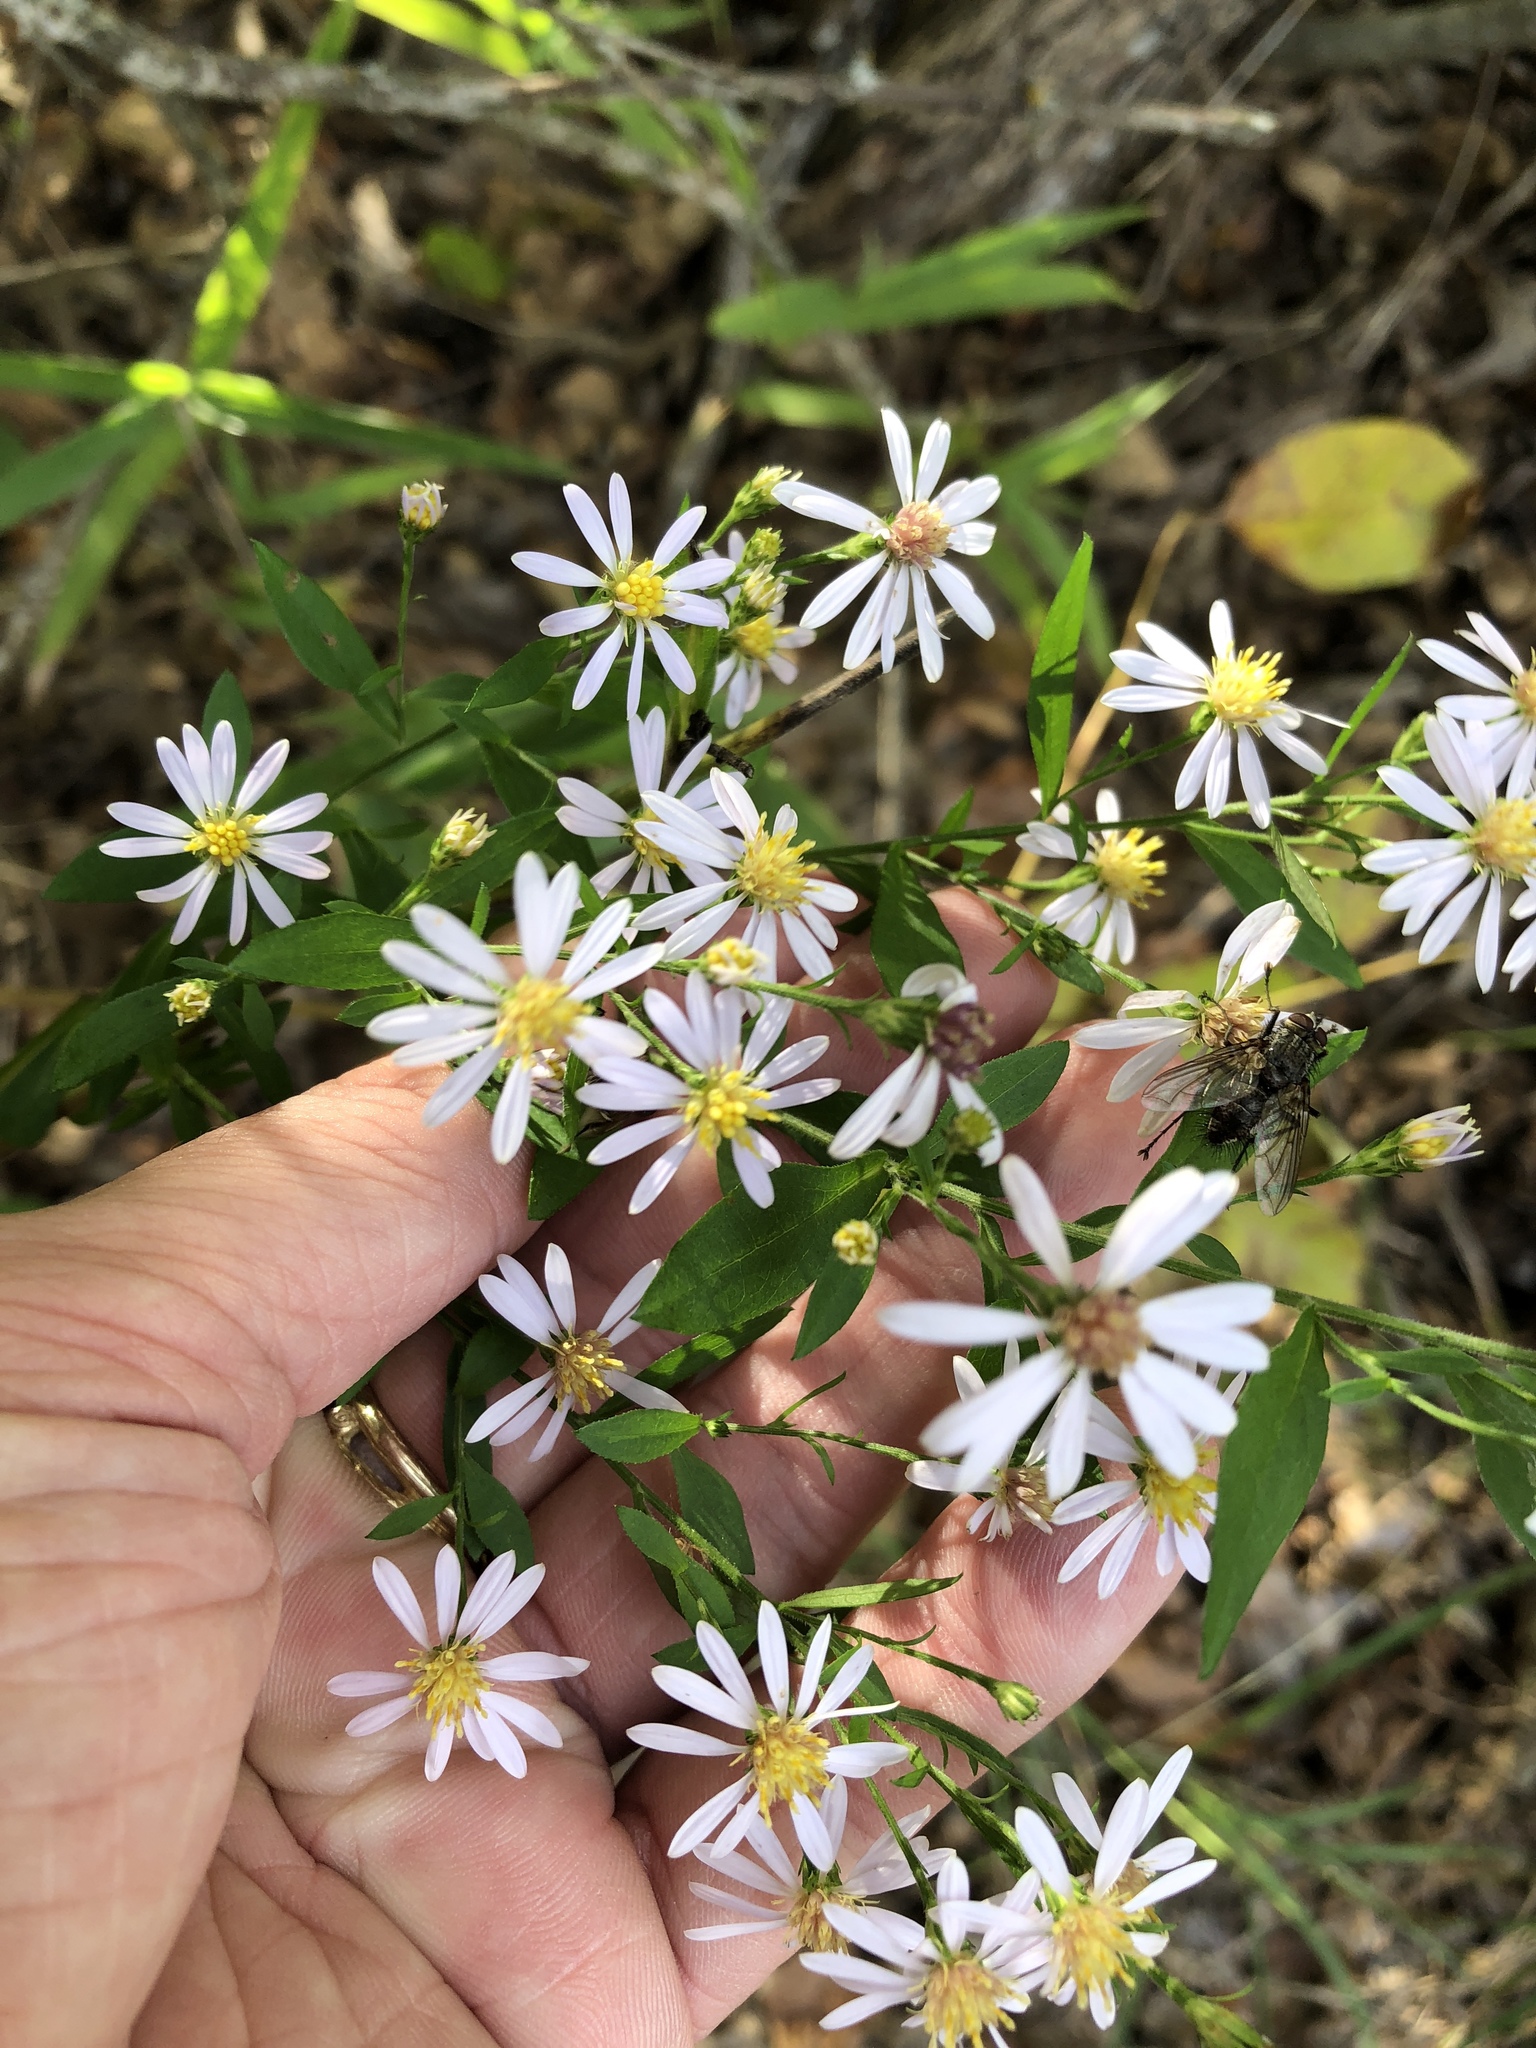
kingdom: Plantae
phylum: Tracheophyta
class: Magnoliopsida
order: Asterales
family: Asteraceae
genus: Symphyotrichum
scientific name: Symphyotrichum lanceolatum
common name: Panicled aster
